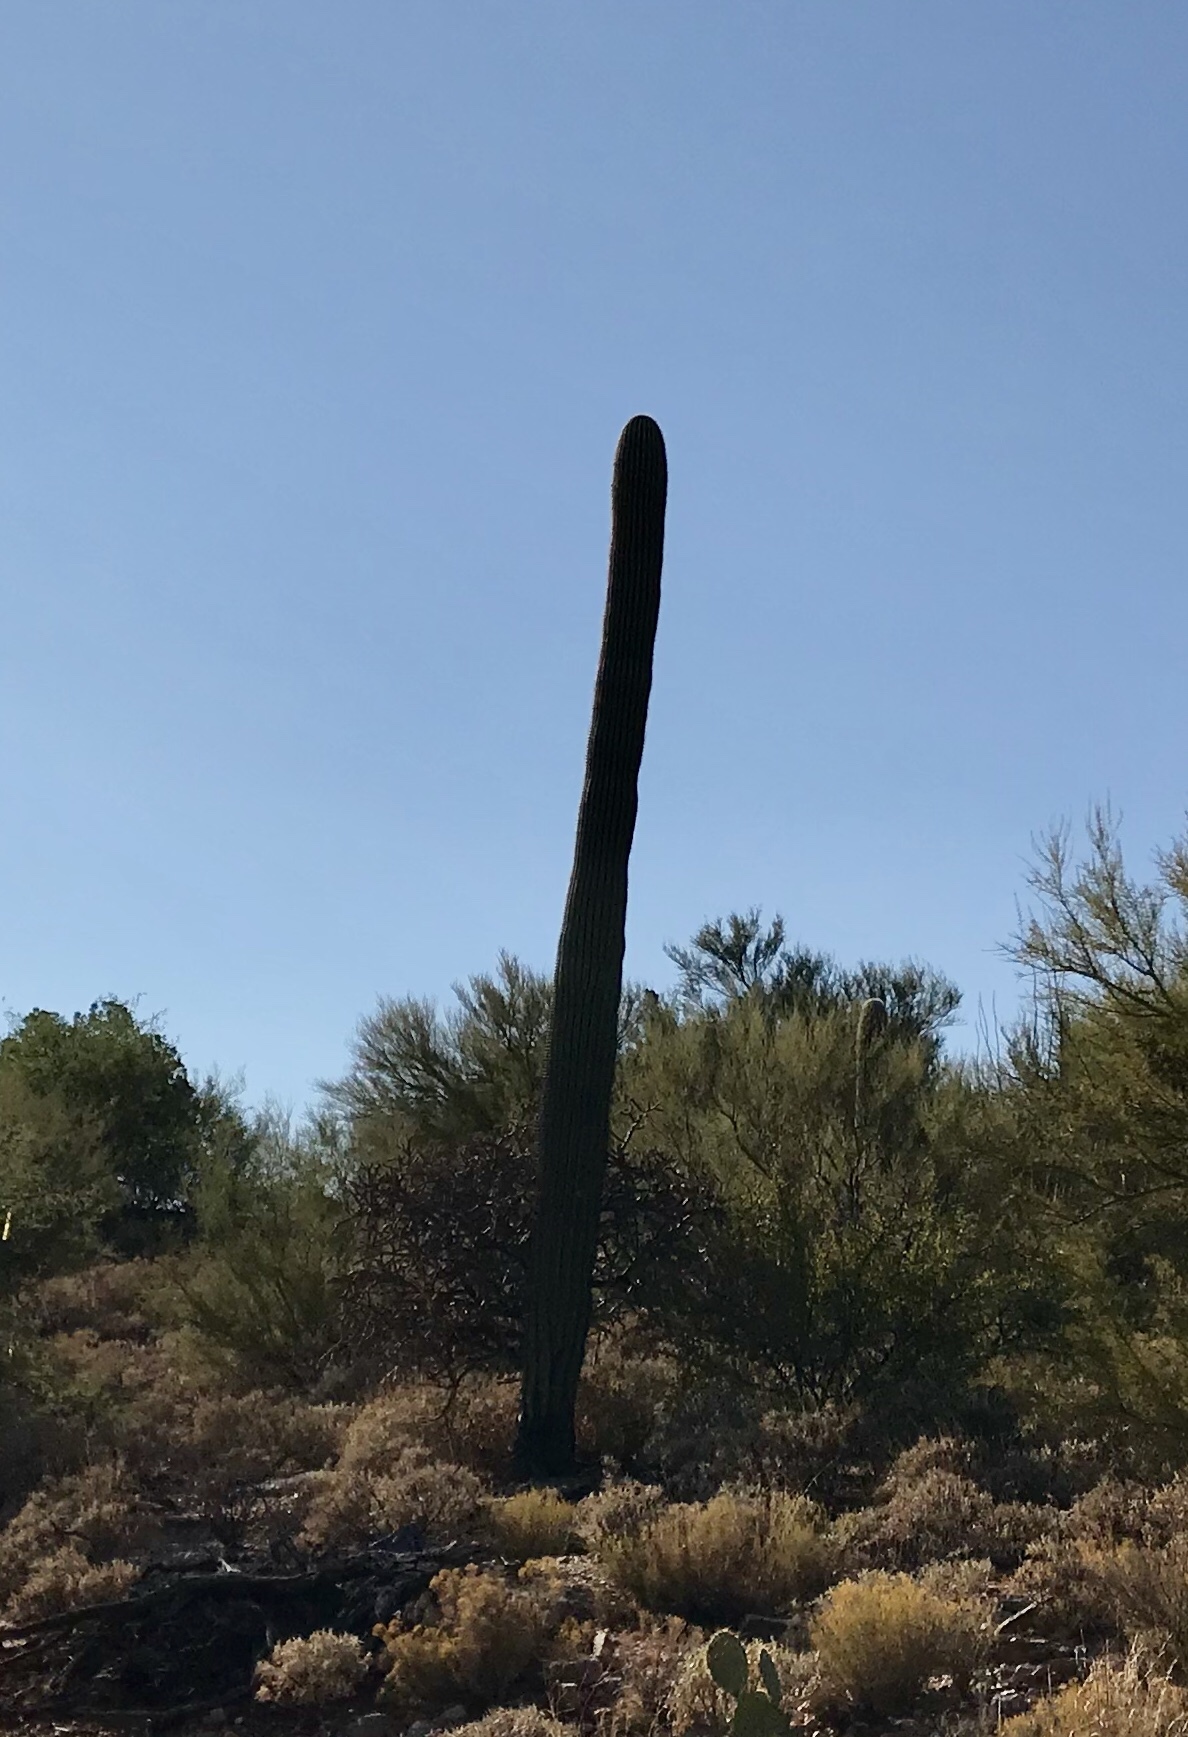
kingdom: Plantae
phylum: Tracheophyta
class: Magnoliopsida
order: Caryophyllales
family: Cactaceae
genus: Carnegiea
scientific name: Carnegiea gigantea
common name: Saguaro
